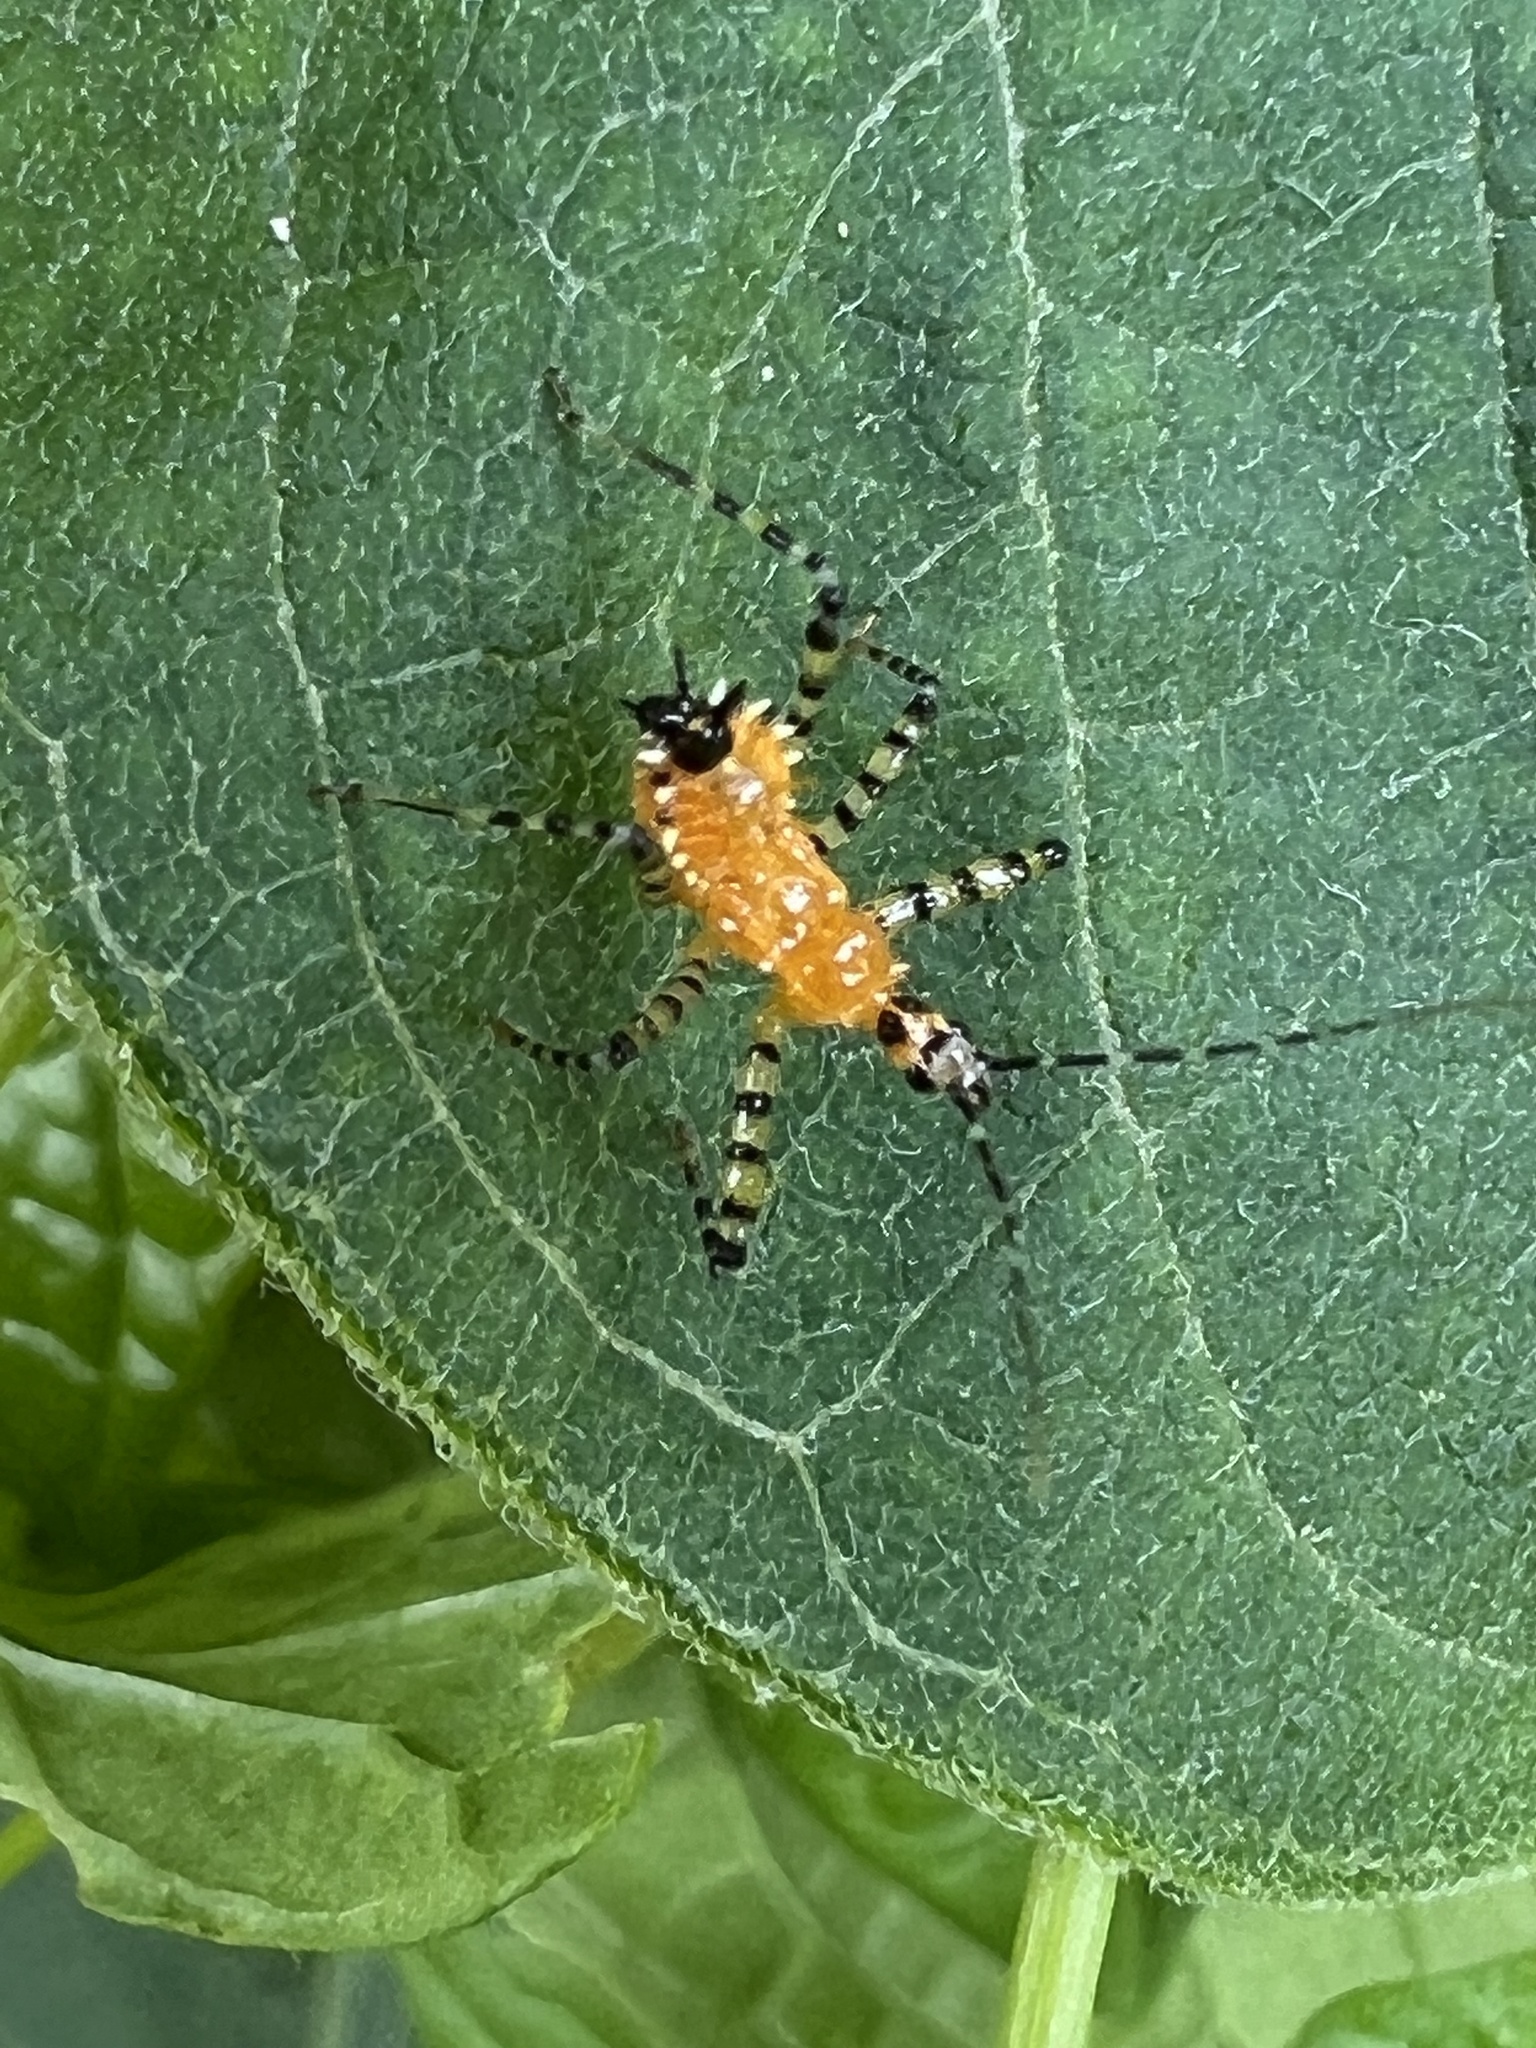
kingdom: Animalia
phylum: Arthropoda
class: Insecta
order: Hemiptera
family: Reduviidae
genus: Pselliopus
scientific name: Pselliopus barberi
